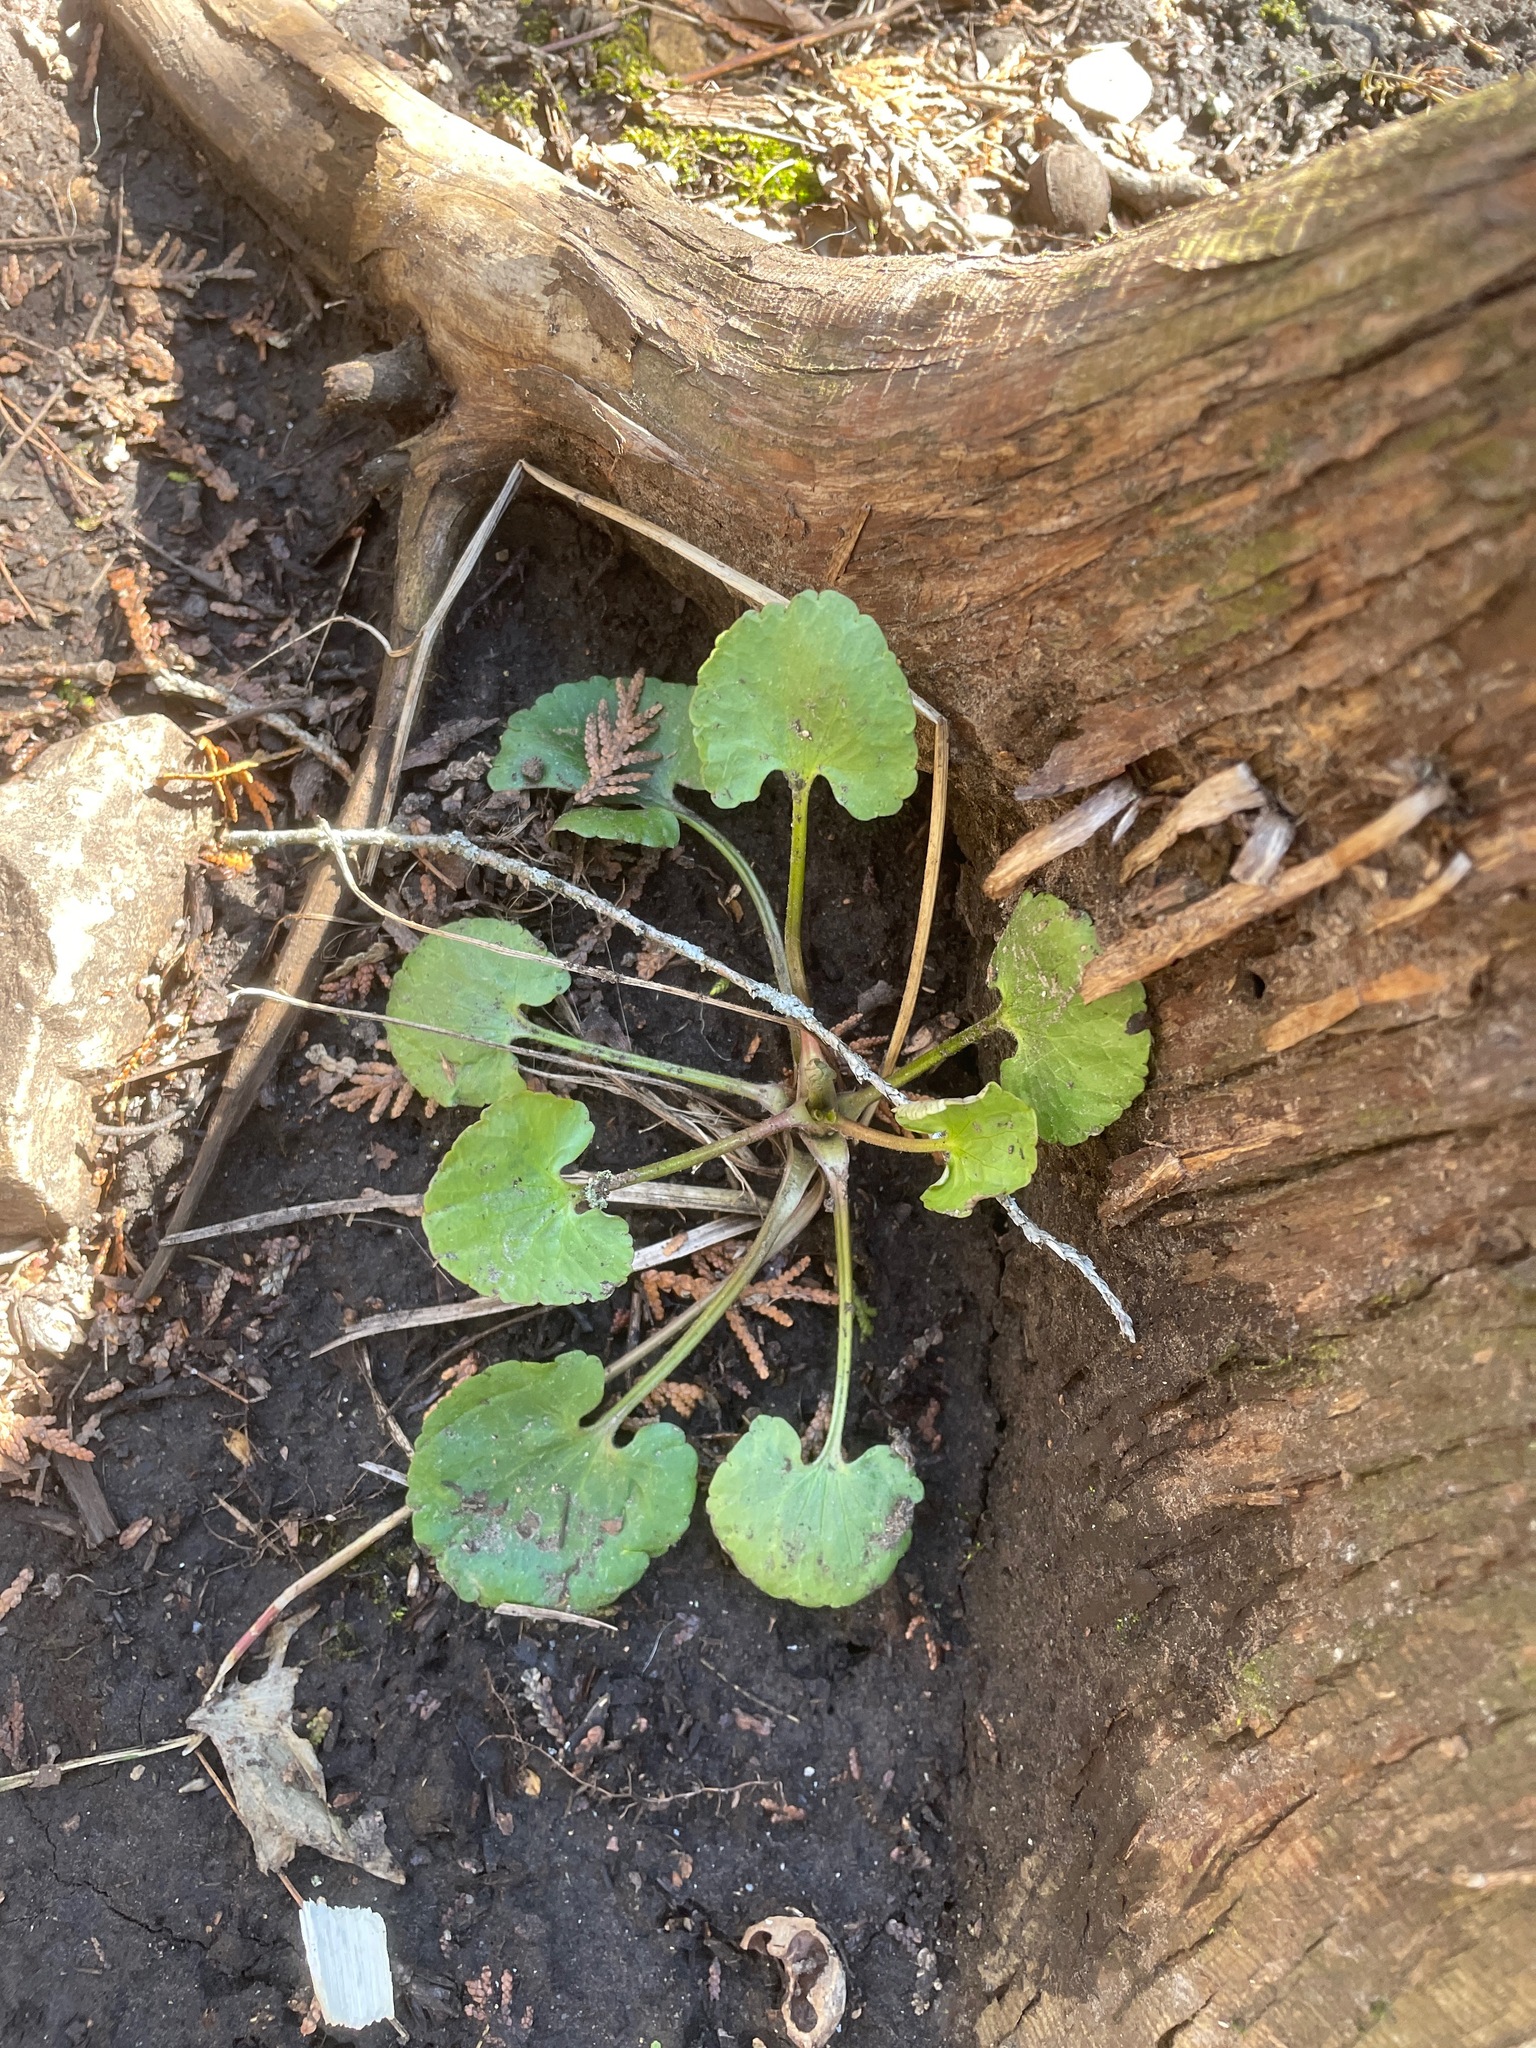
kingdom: Plantae
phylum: Tracheophyta
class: Magnoliopsida
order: Ranunculales
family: Ranunculaceae
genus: Ranunculus
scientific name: Ranunculus abortivus
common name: Early wood buttercup
